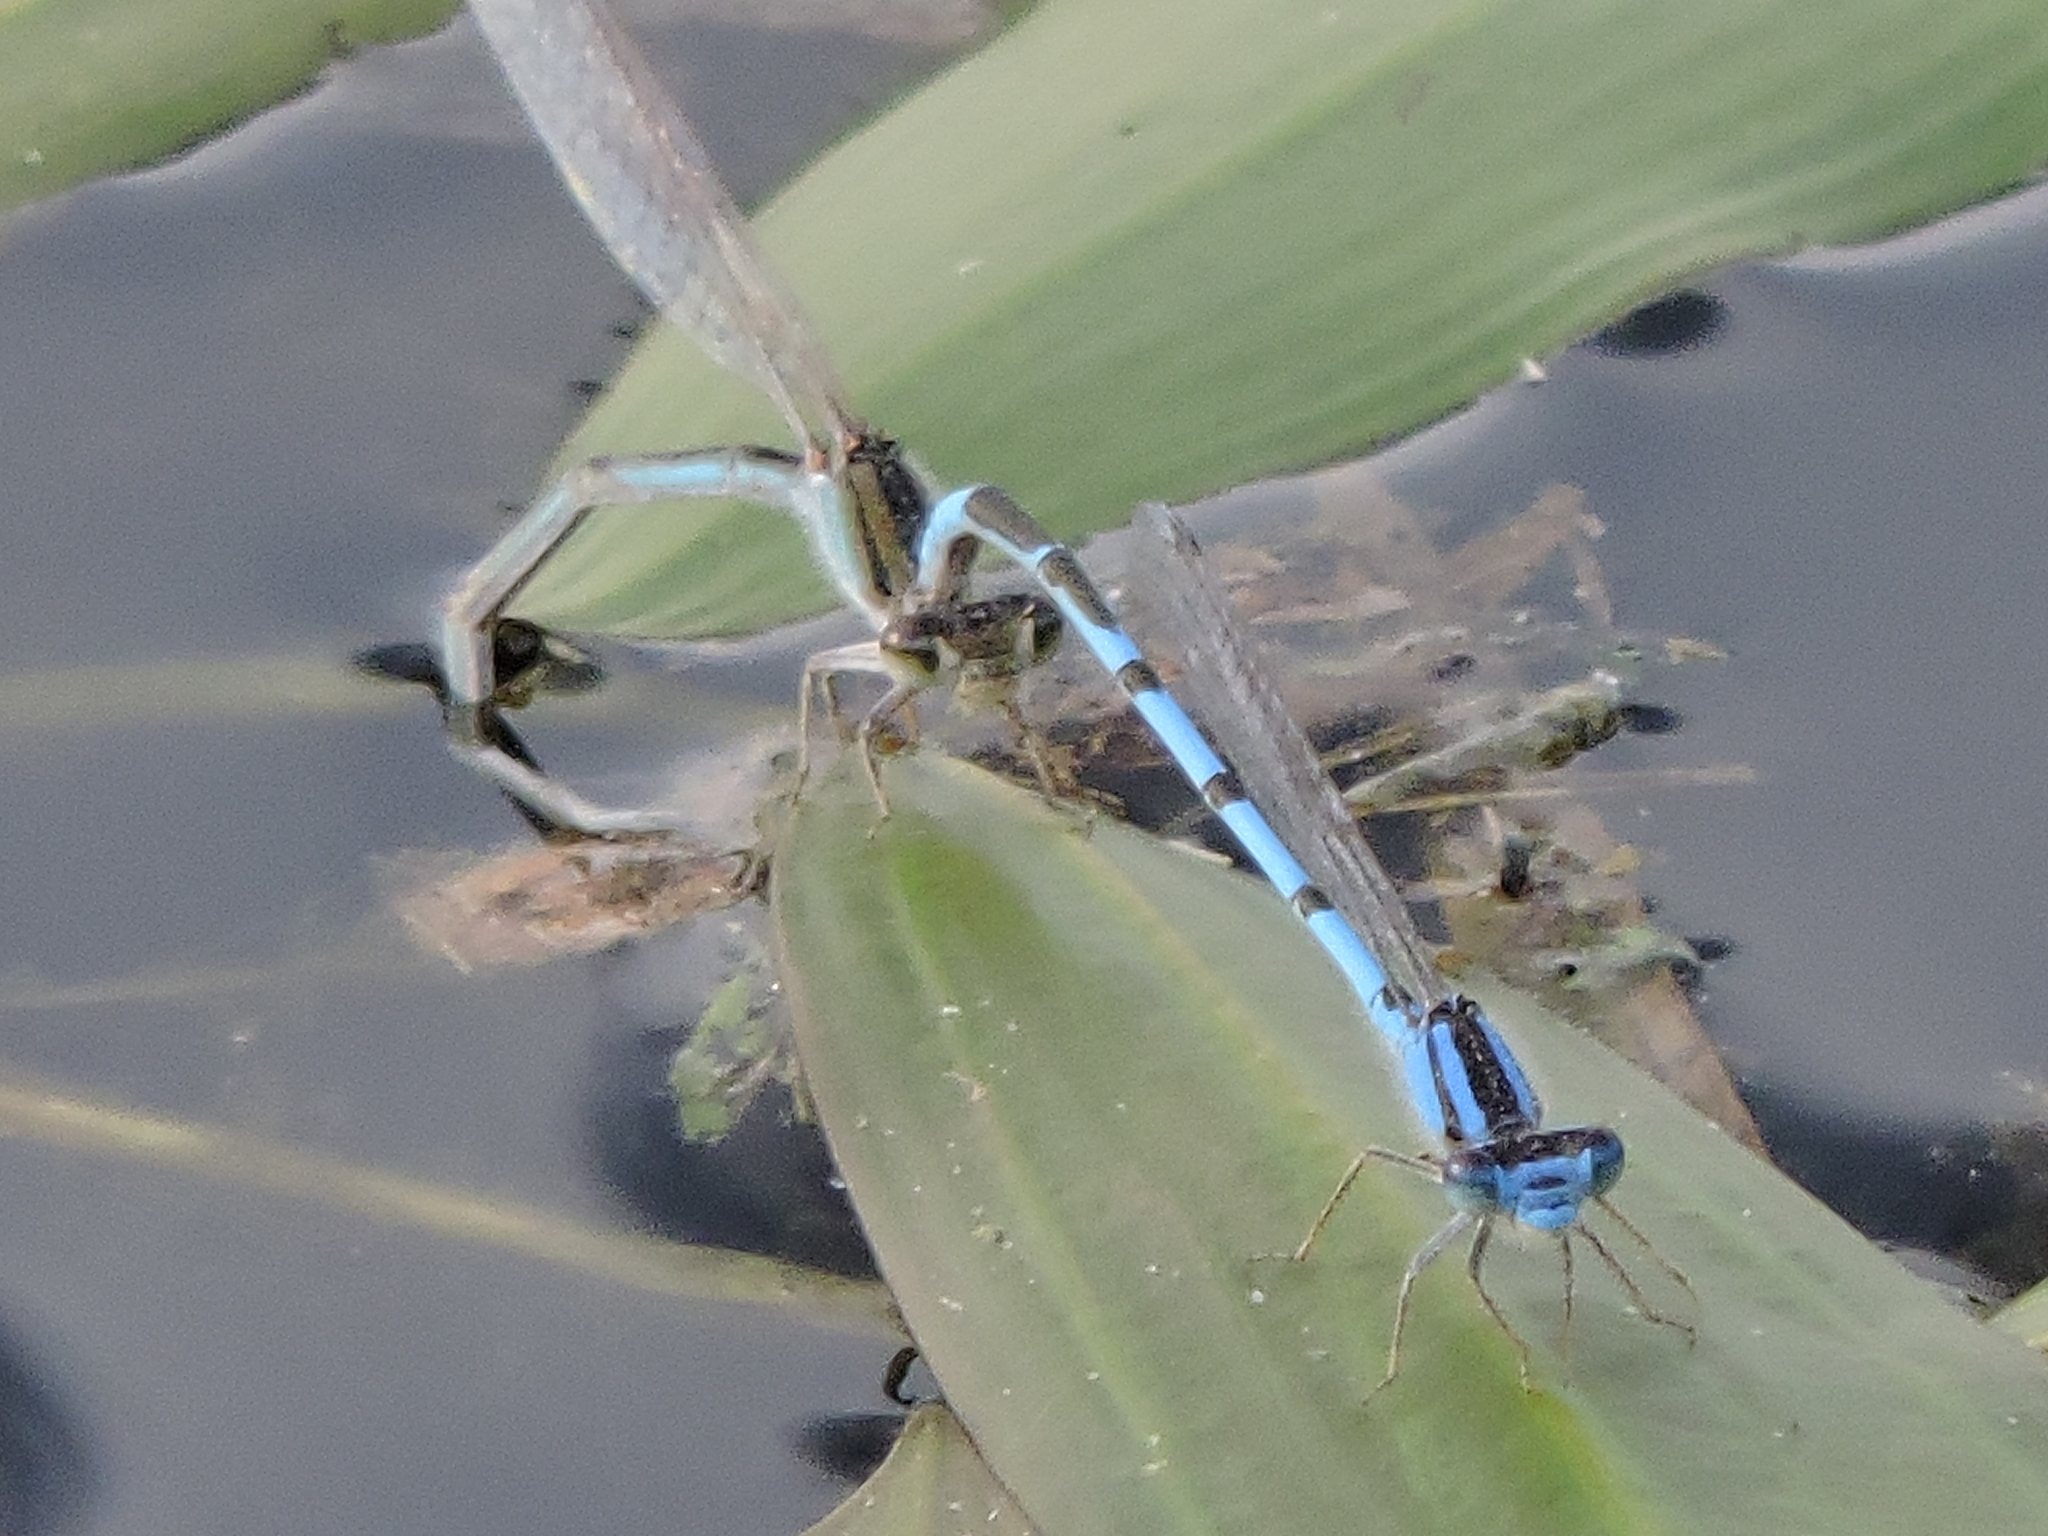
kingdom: Animalia
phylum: Arthropoda
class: Insecta
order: Odonata
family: Coenagrionidae
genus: Enallagma
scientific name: Enallagma civile
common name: Damselfly
